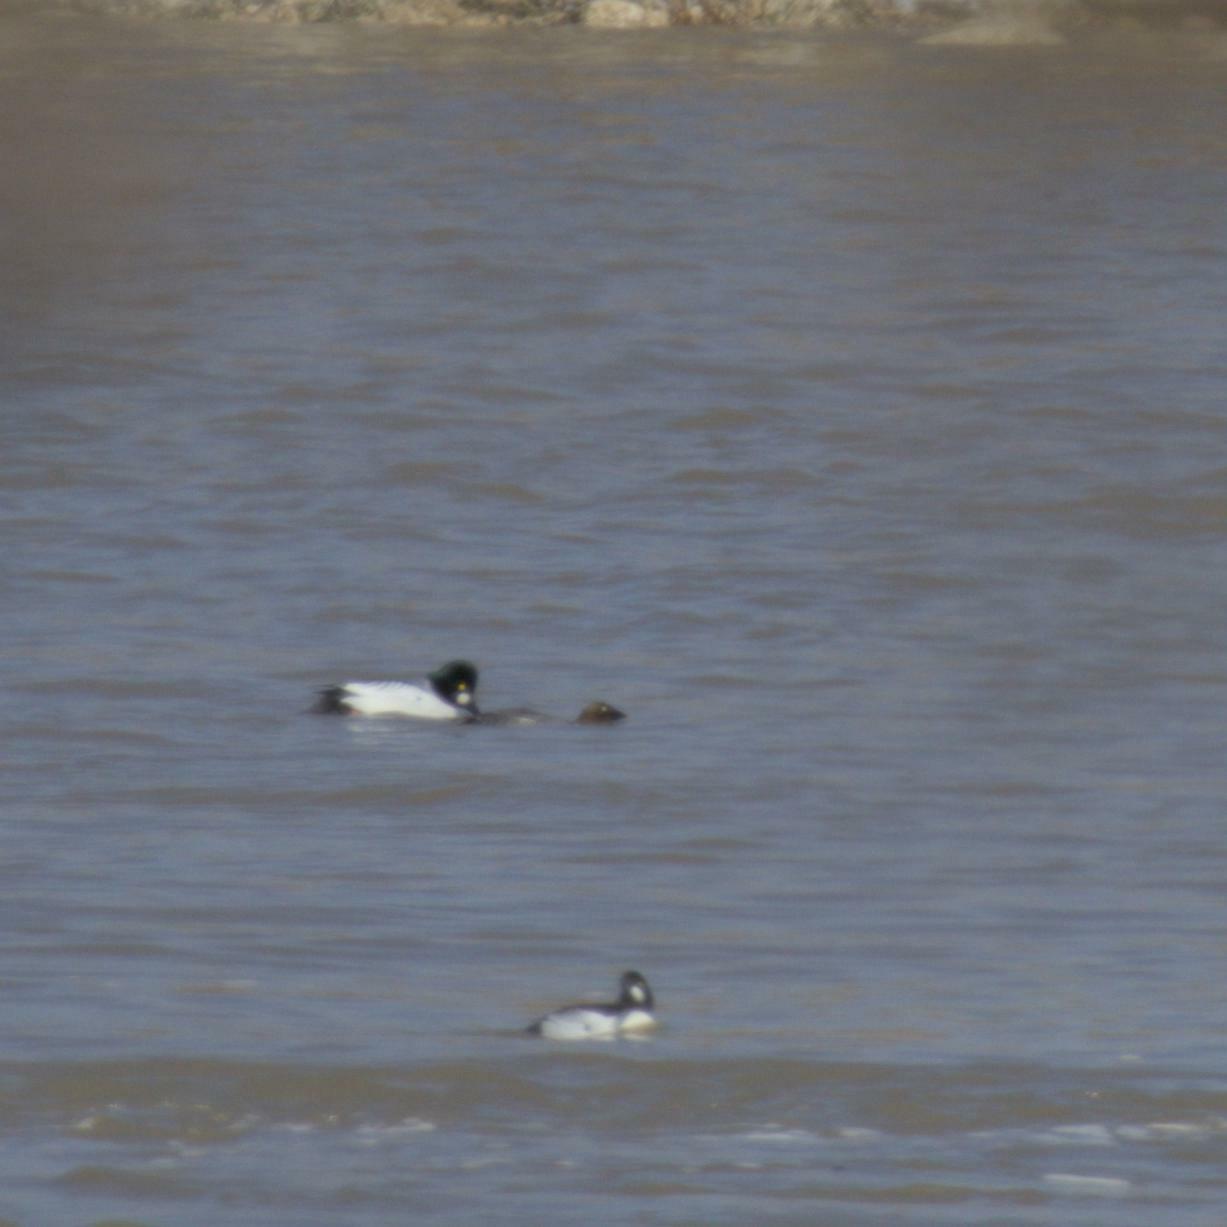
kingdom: Animalia
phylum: Chordata
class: Aves
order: Anseriformes
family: Anatidae
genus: Bucephala
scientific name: Bucephala clangula
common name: Common goldeneye
